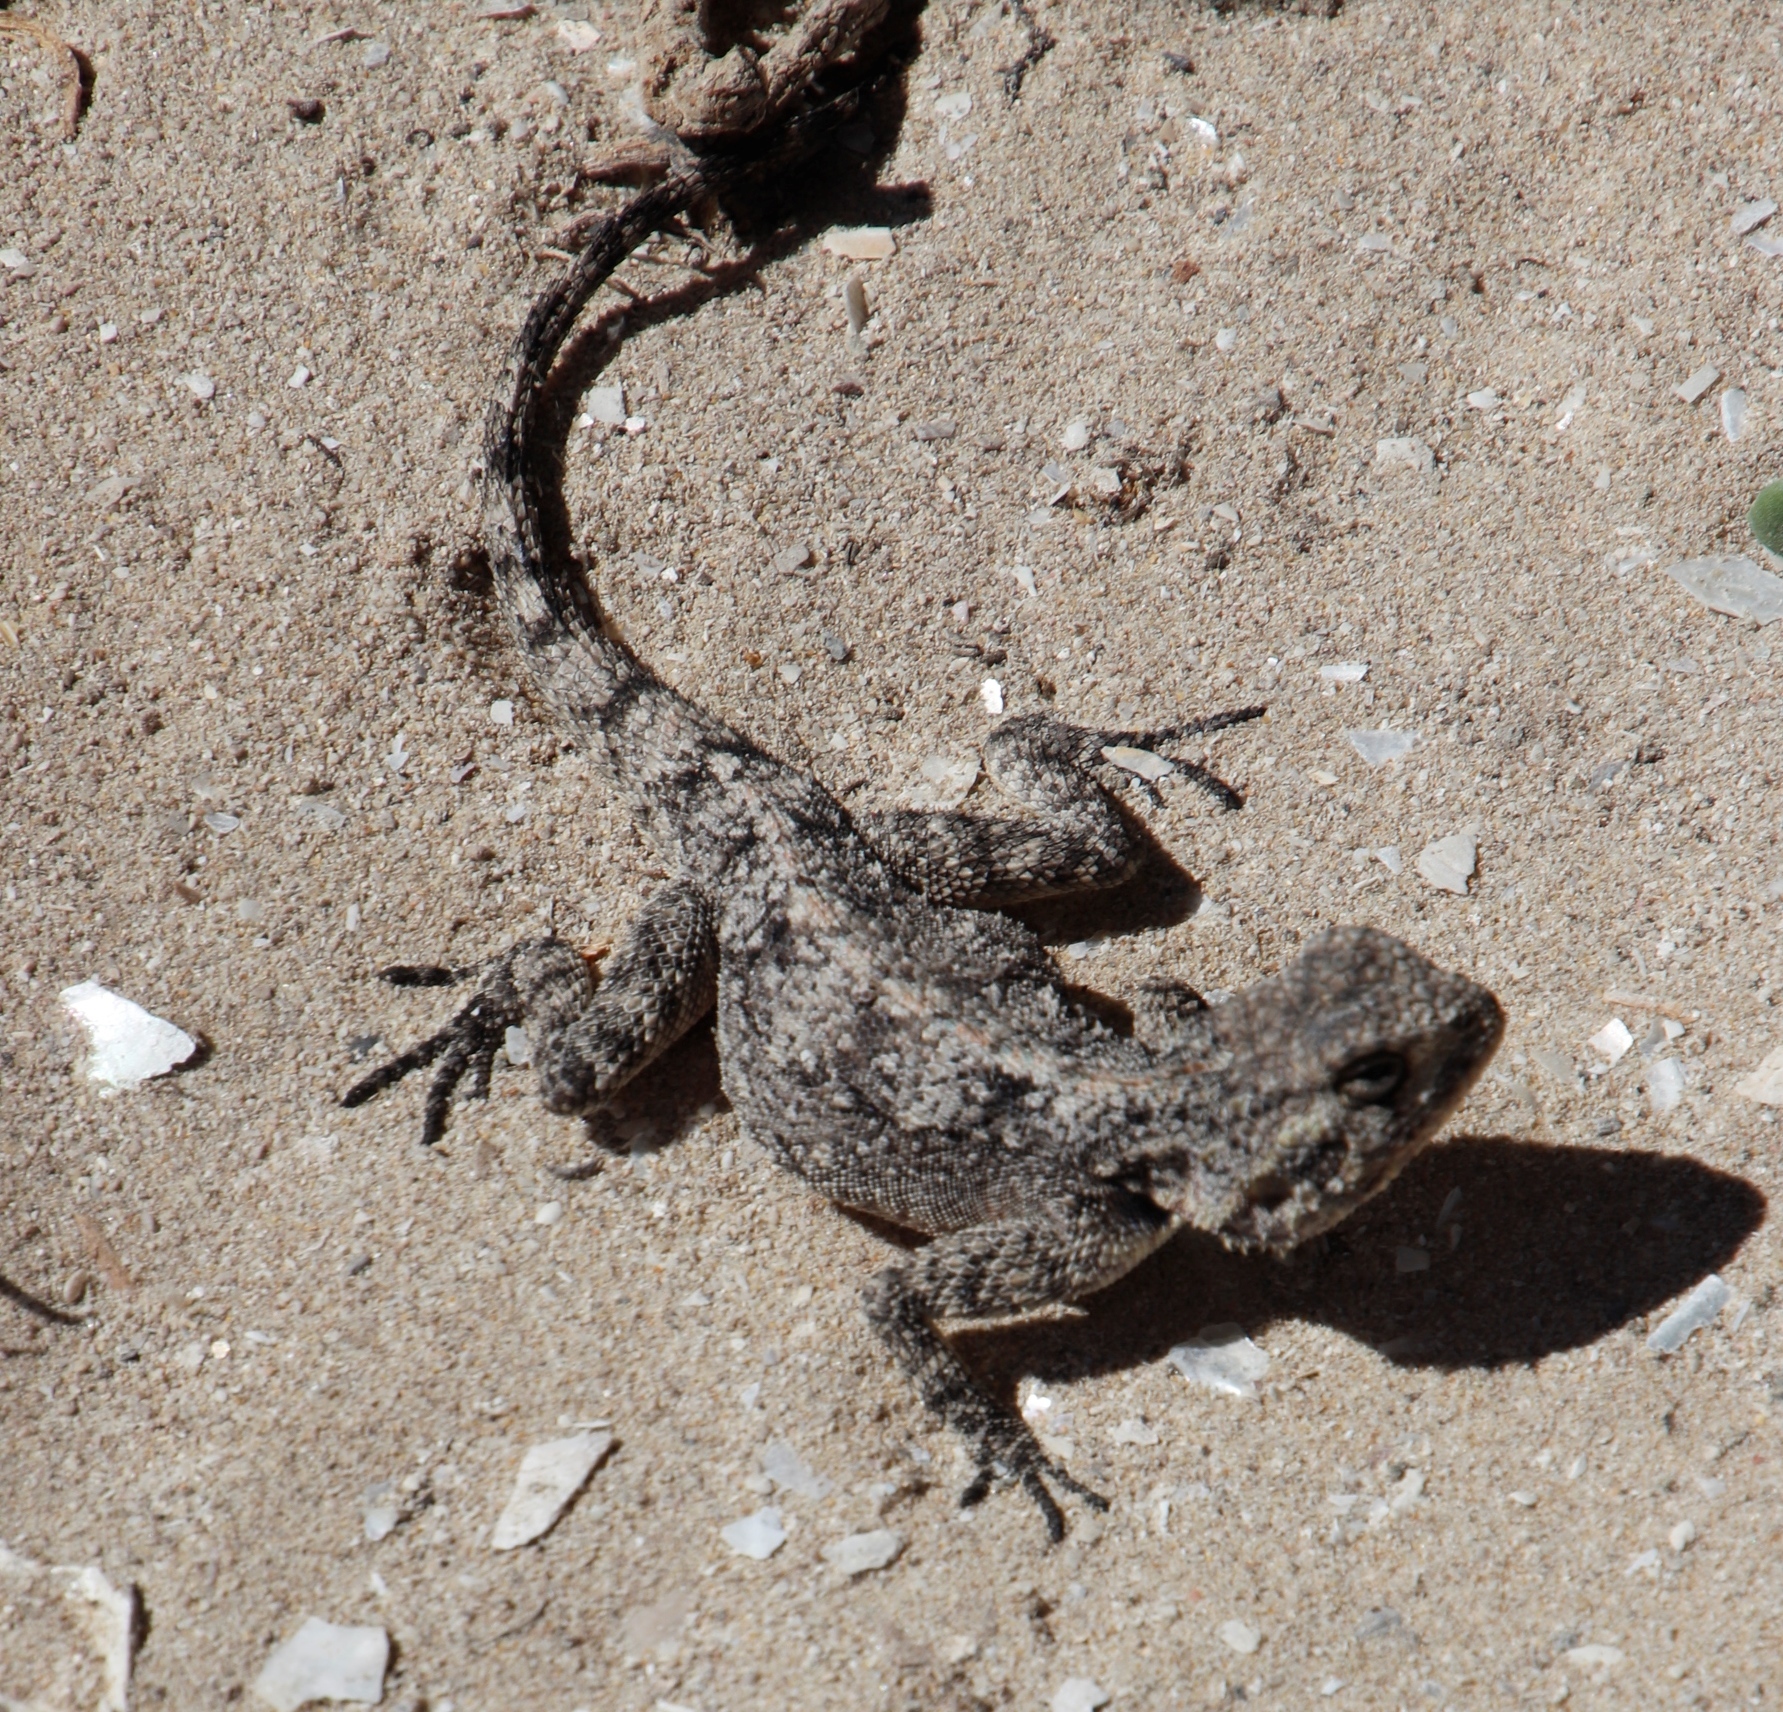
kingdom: Animalia
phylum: Chordata
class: Squamata
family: Agamidae
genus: Agama
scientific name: Agama atra
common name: Southern african rock agama
